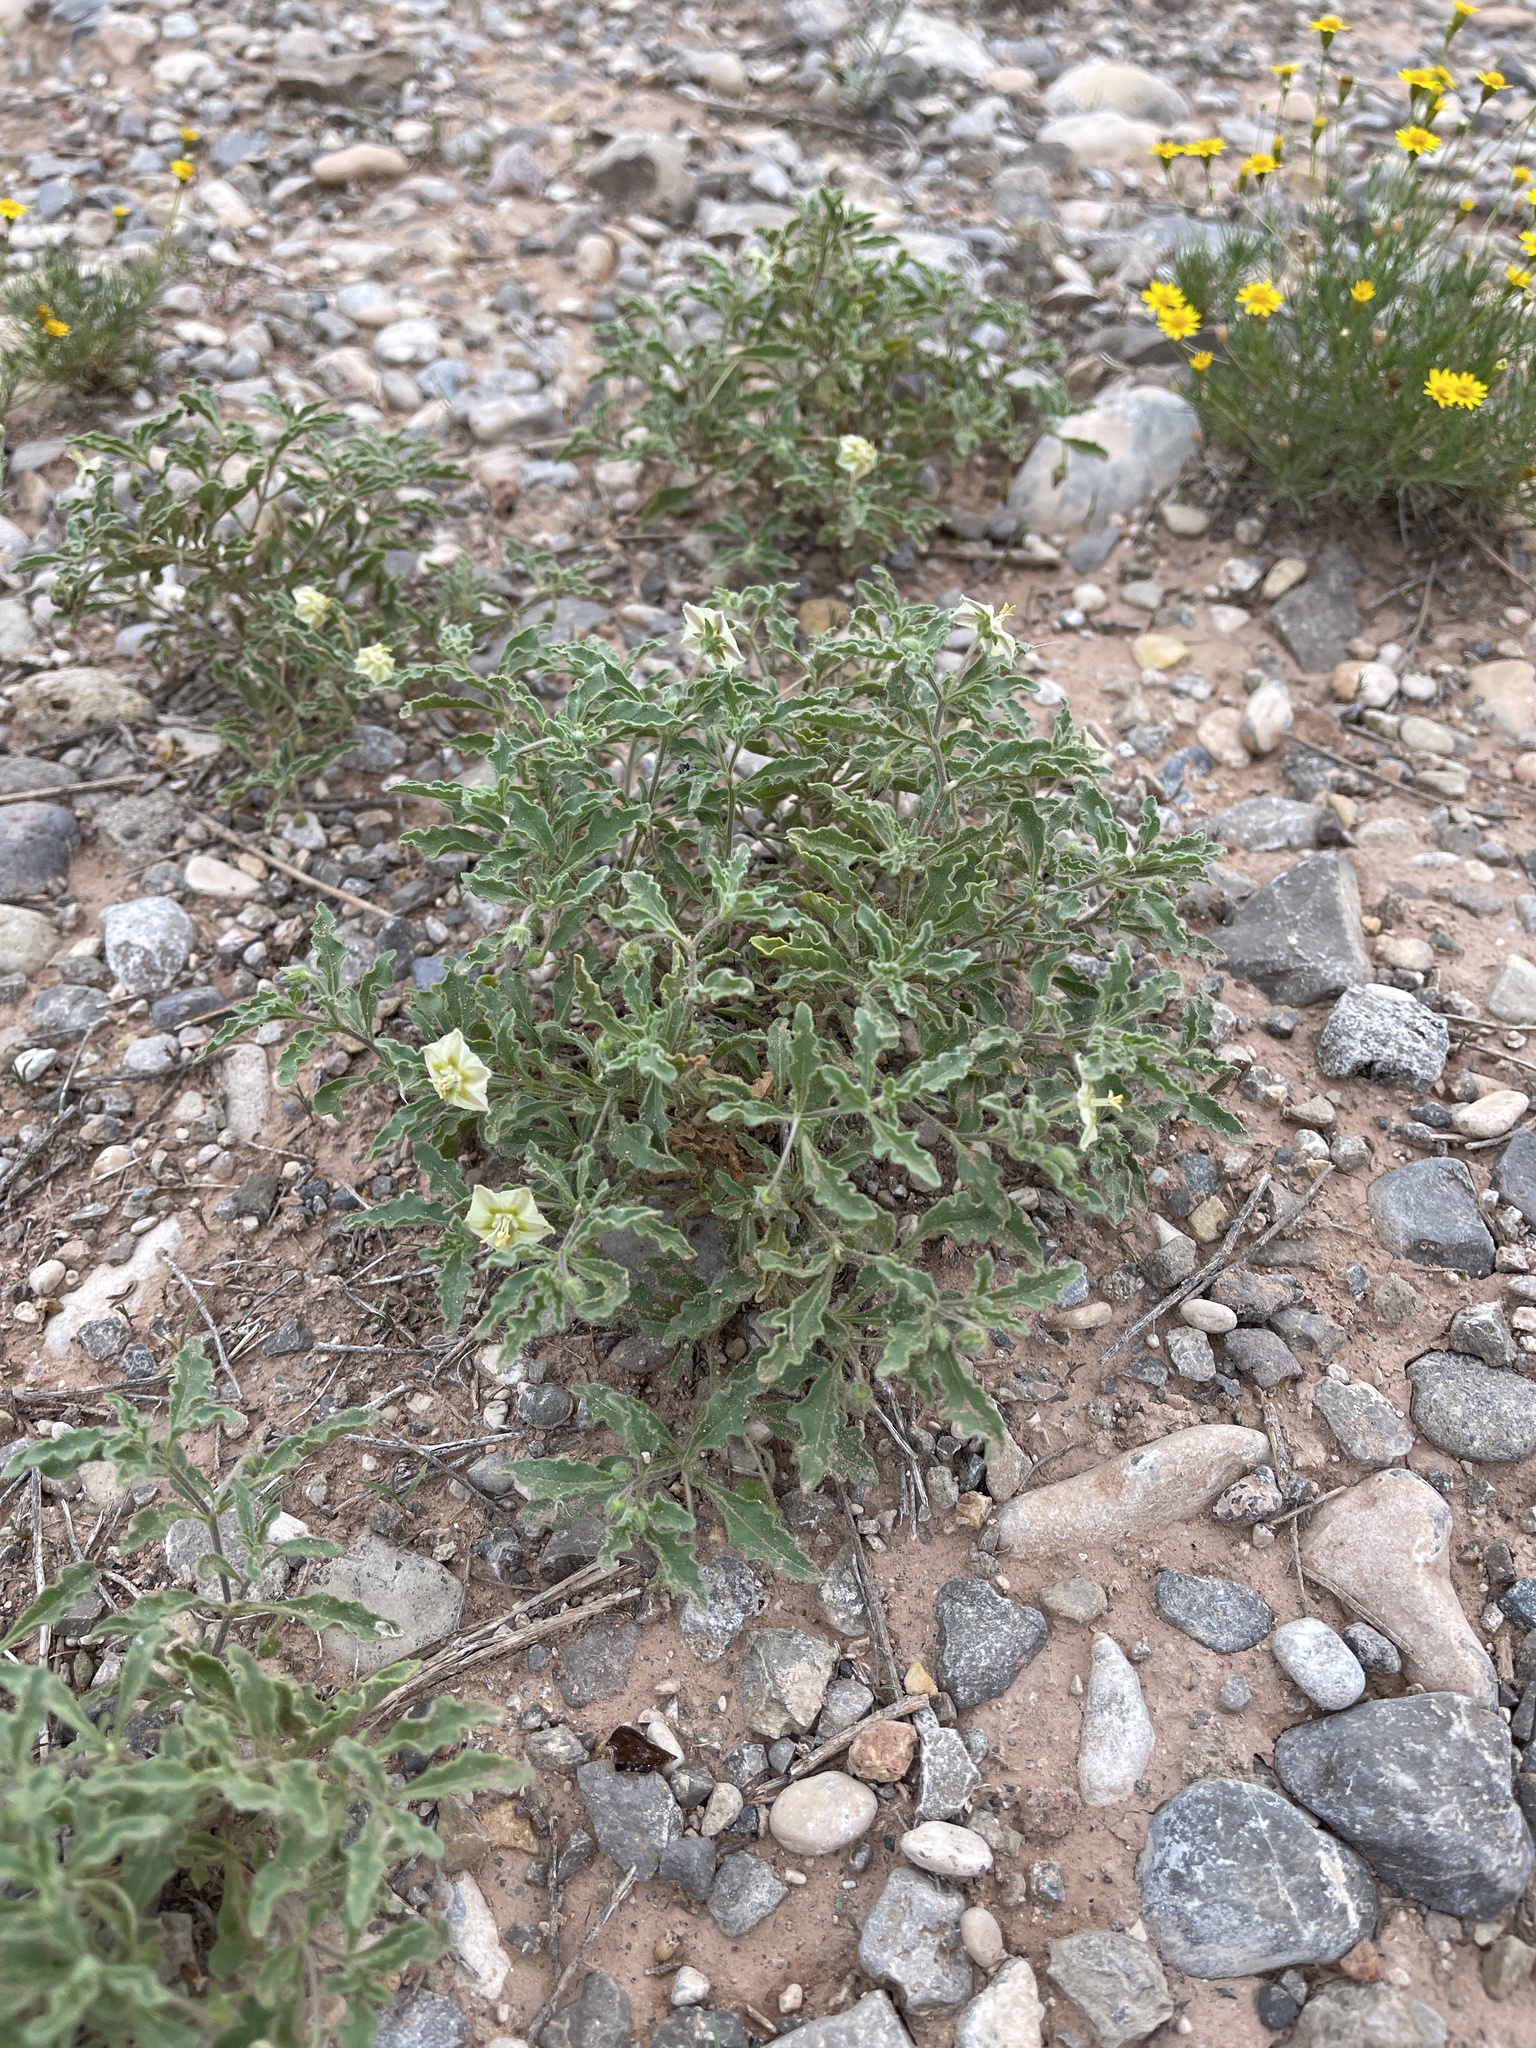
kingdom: Plantae
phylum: Tracheophyta
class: Magnoliopsida
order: Solanales
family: Solanaceae
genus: Chamaesaracha
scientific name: Chamaesaracha sordida
